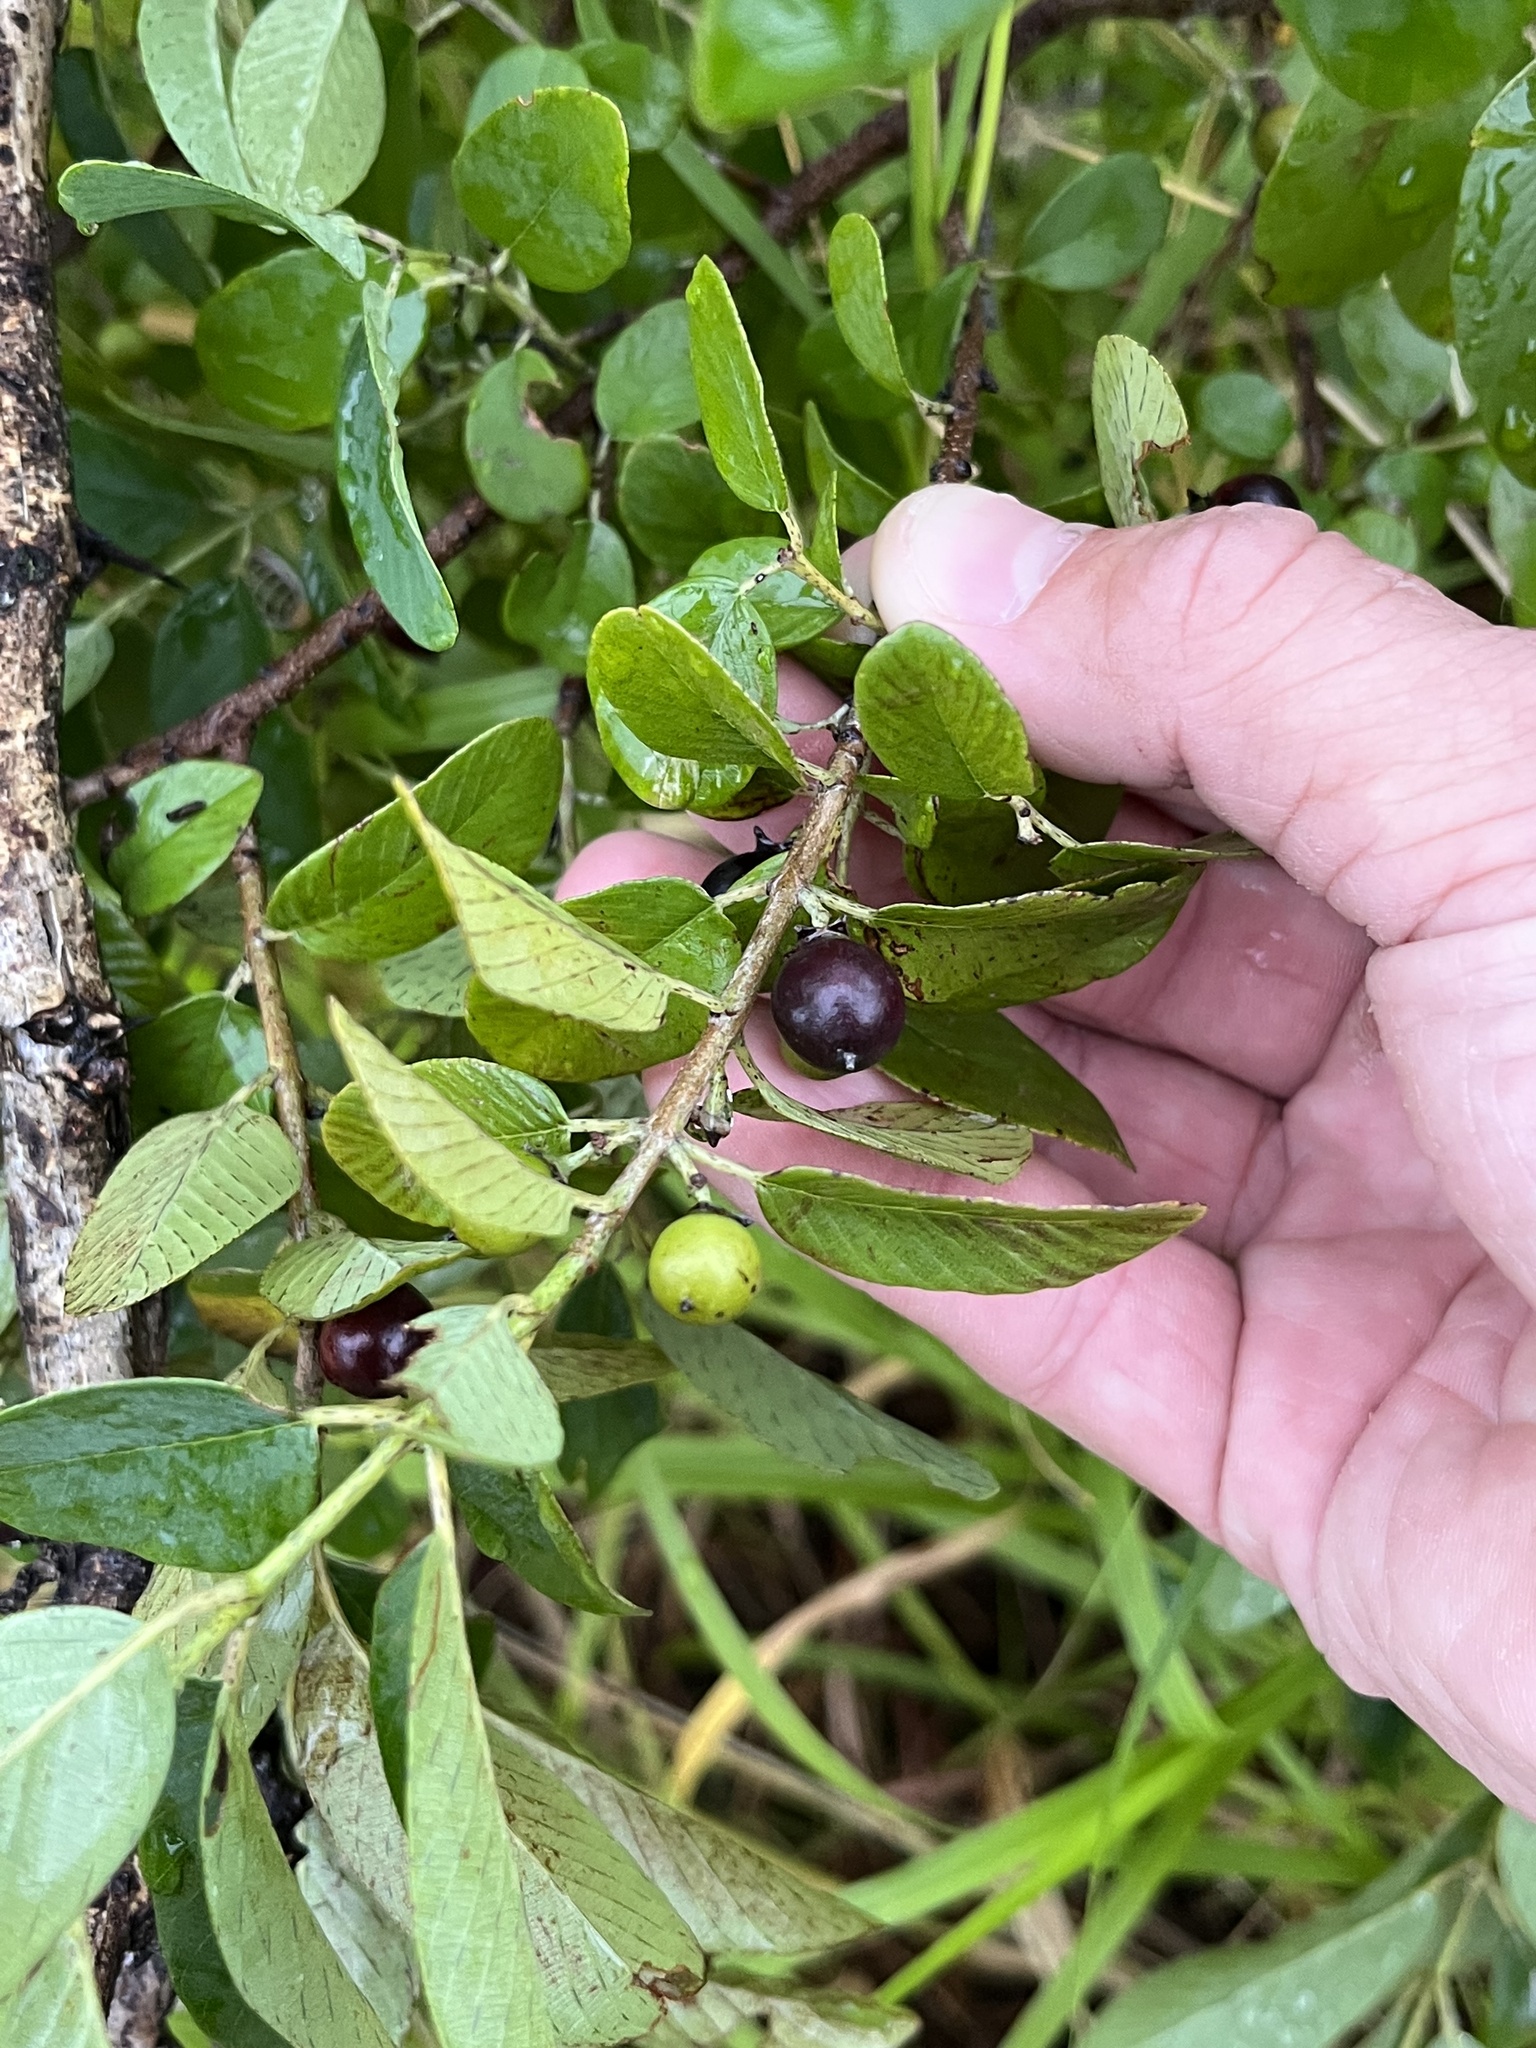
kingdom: Plantae
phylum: Tracheophyta
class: Magnoliopsida
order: Rosales
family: Rhamnaceae
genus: Karwinskia
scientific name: Karwinskia humboldtiana
